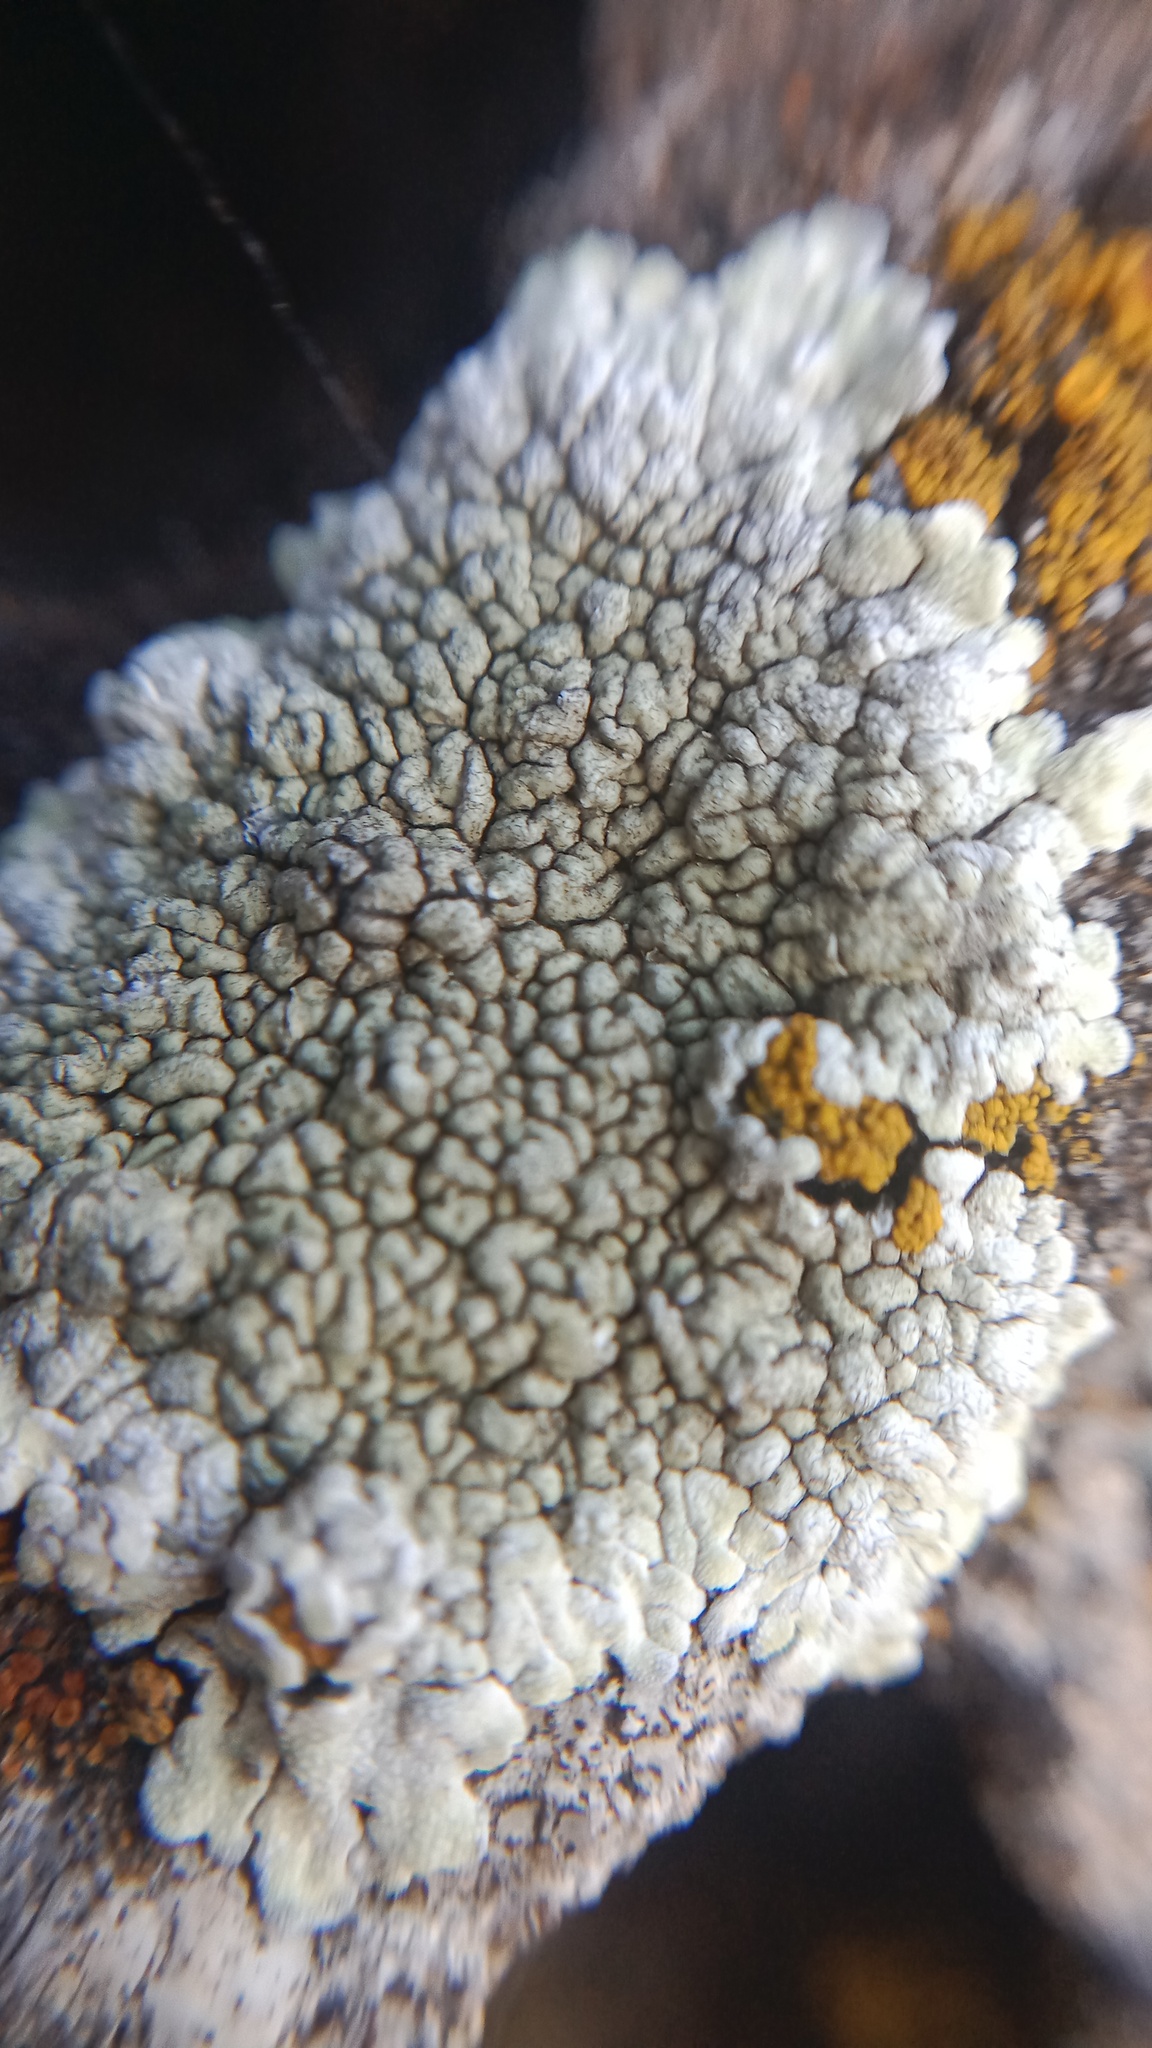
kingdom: Fungi
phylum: Ascomycota
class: Lecanoromycetes
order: Pertusariales
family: Megasporaceae
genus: Lobothallia
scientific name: Lobothallia radiosa
